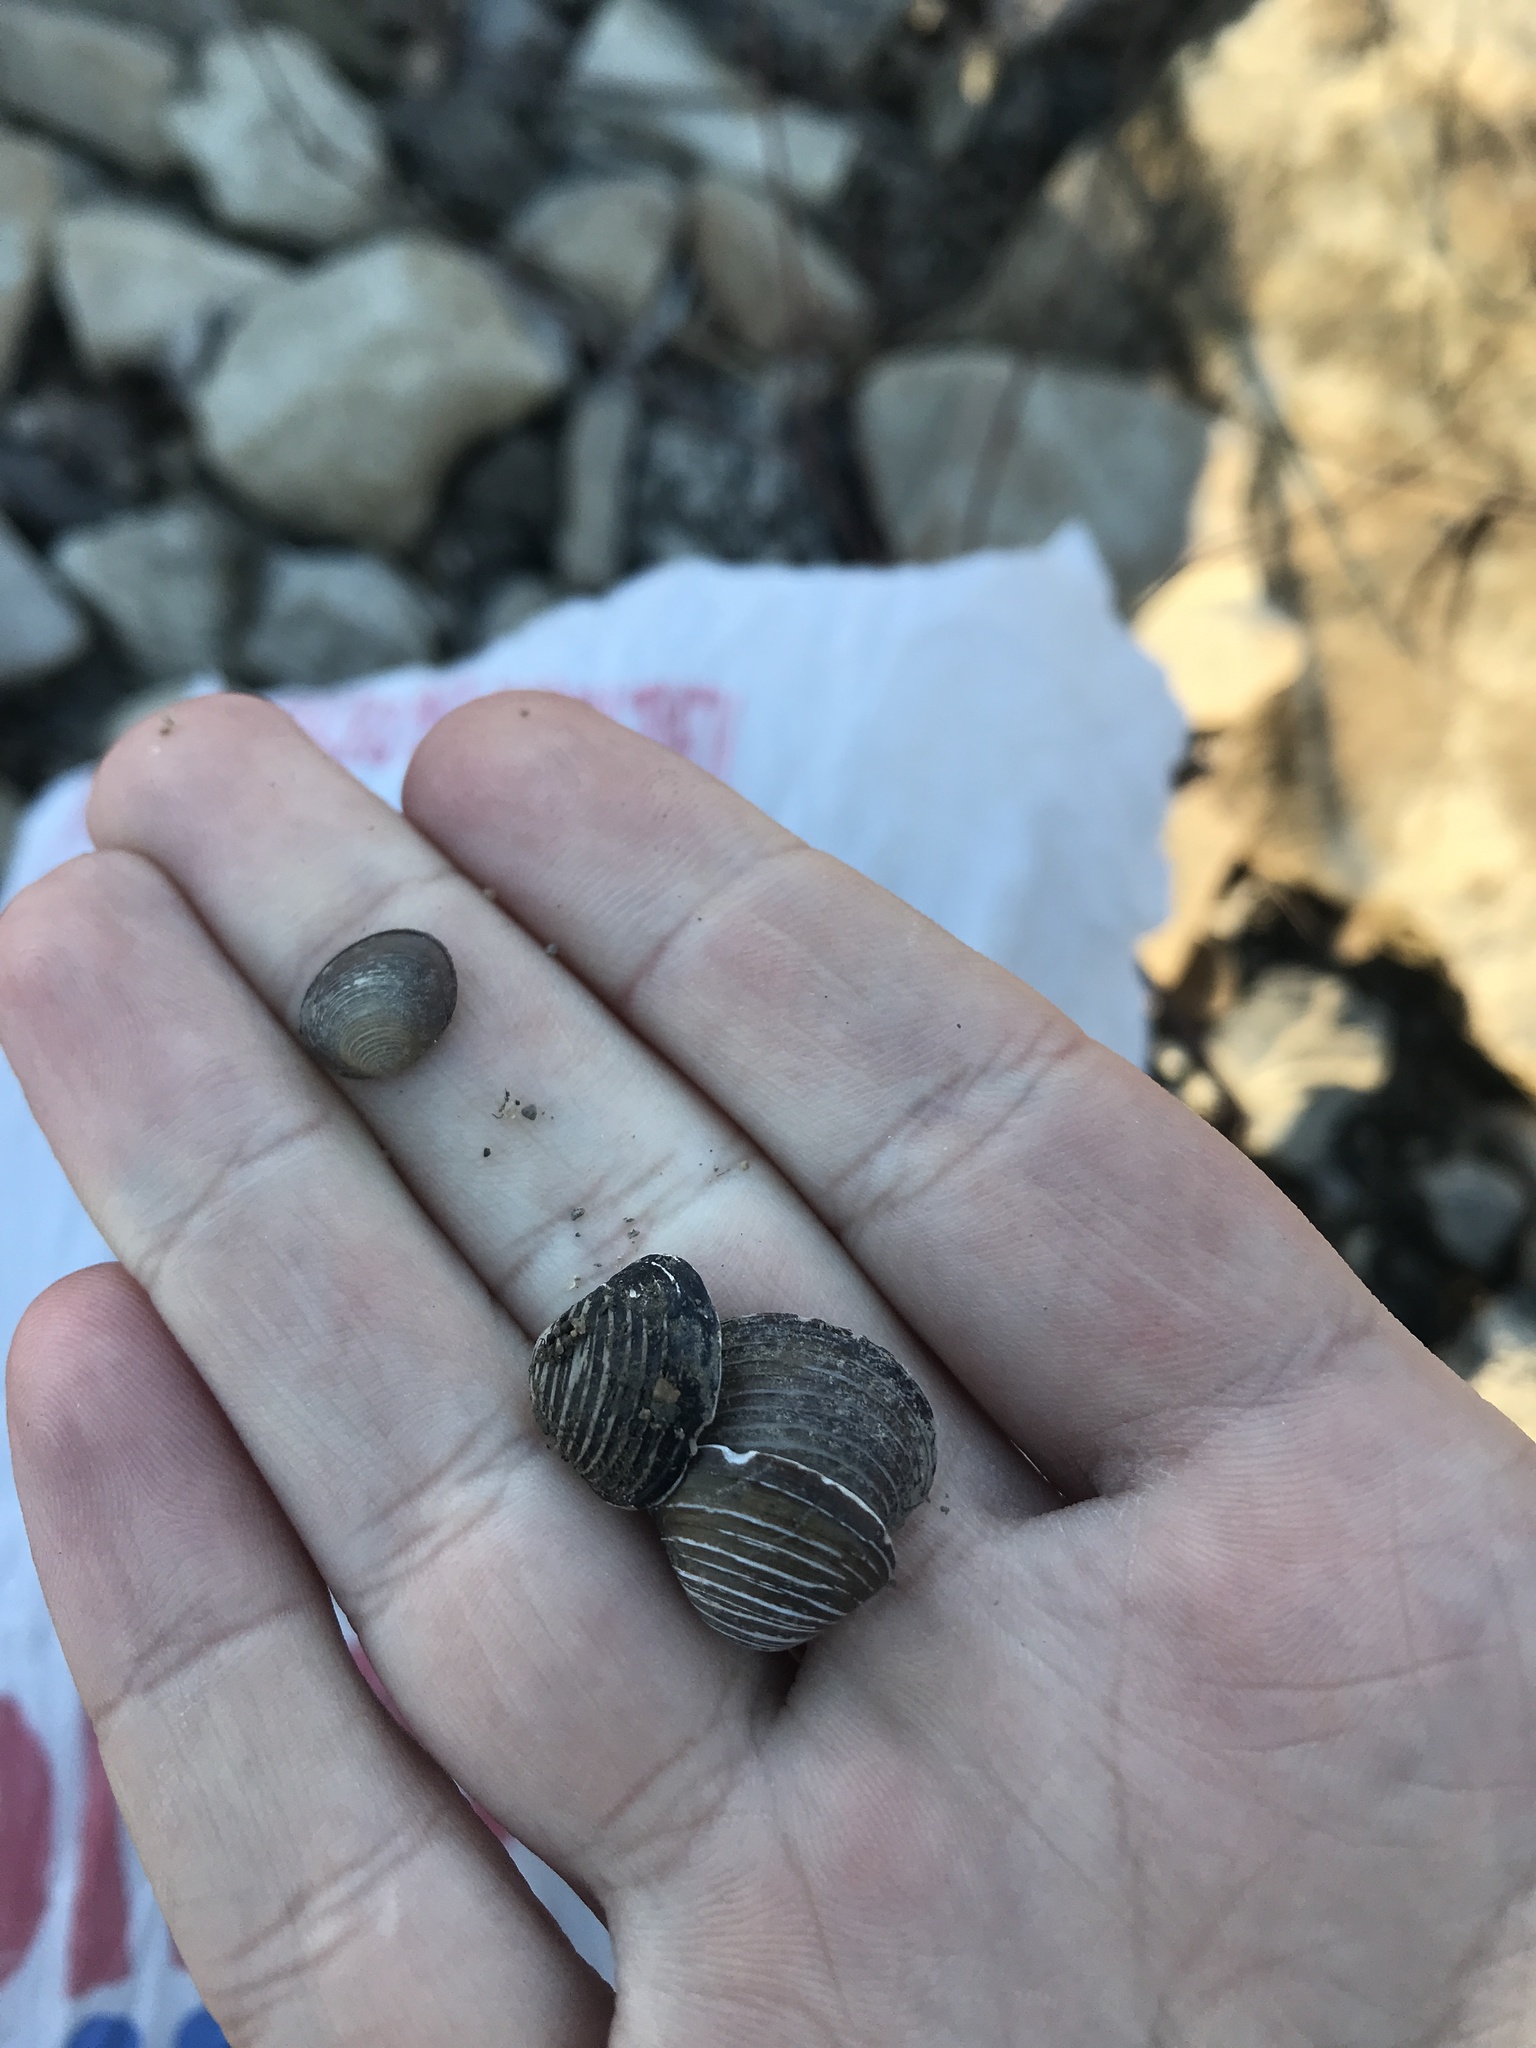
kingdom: Animalia
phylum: Mollusca
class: Bivalvia
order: Venerida
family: Cyrenidae
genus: Corbicula
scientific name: Corbicula fluminea
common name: Asian clam
